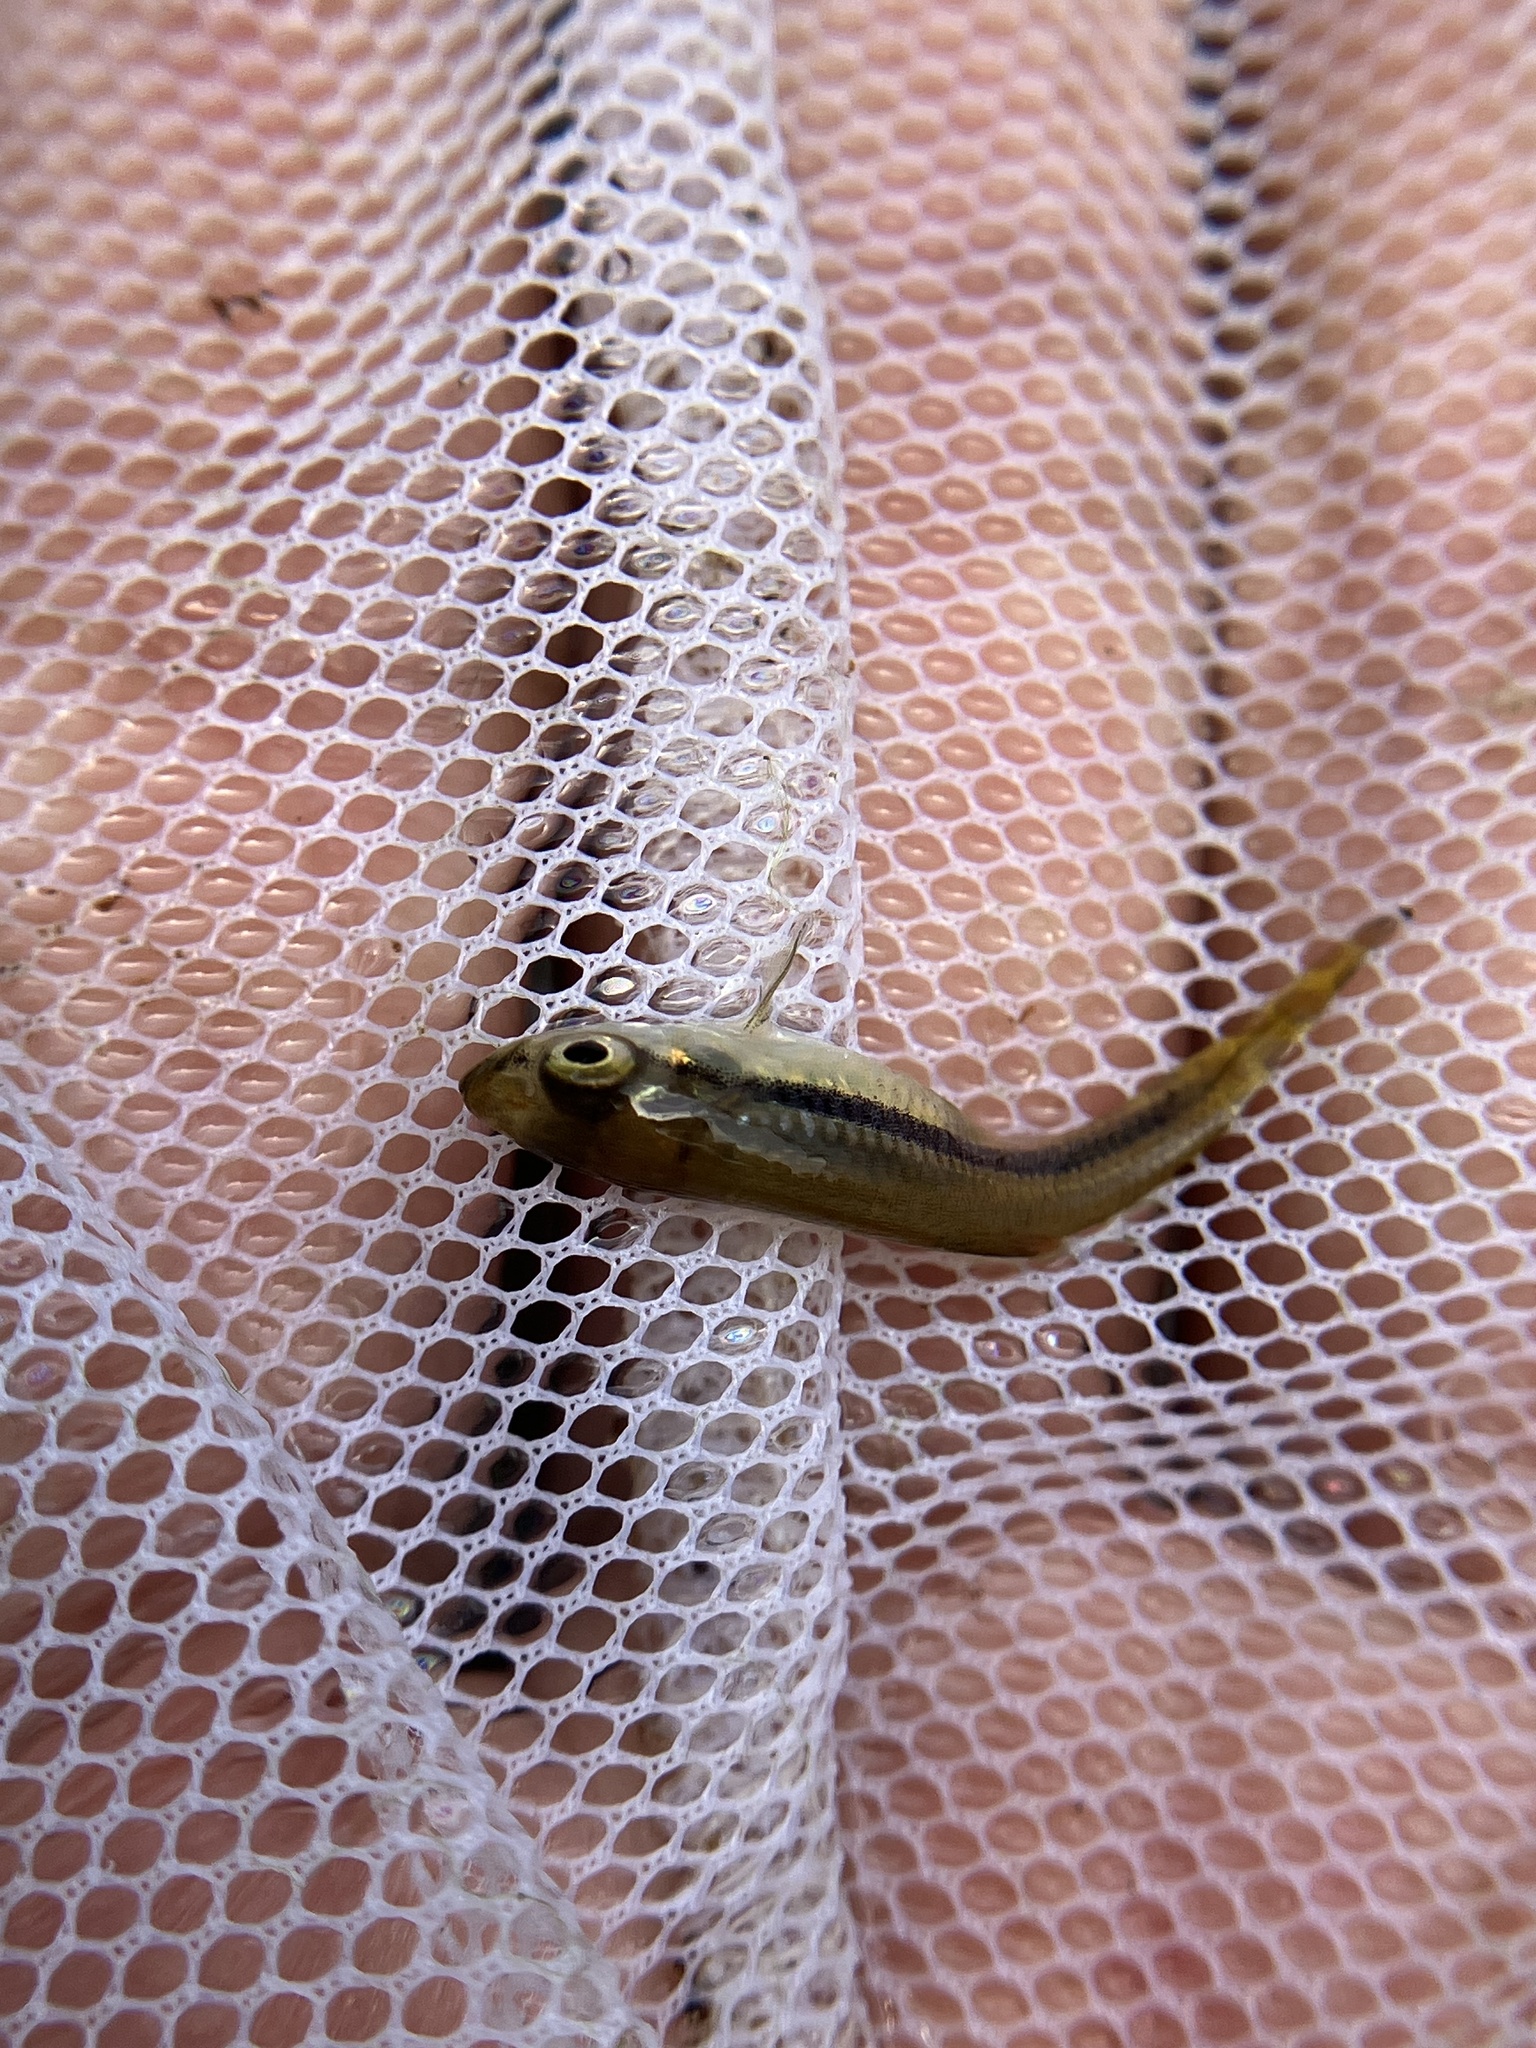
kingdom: Animalia
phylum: Chordata
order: Cypriniformes
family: Cyprinidae
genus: Rasbora
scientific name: Rasbora dandia
